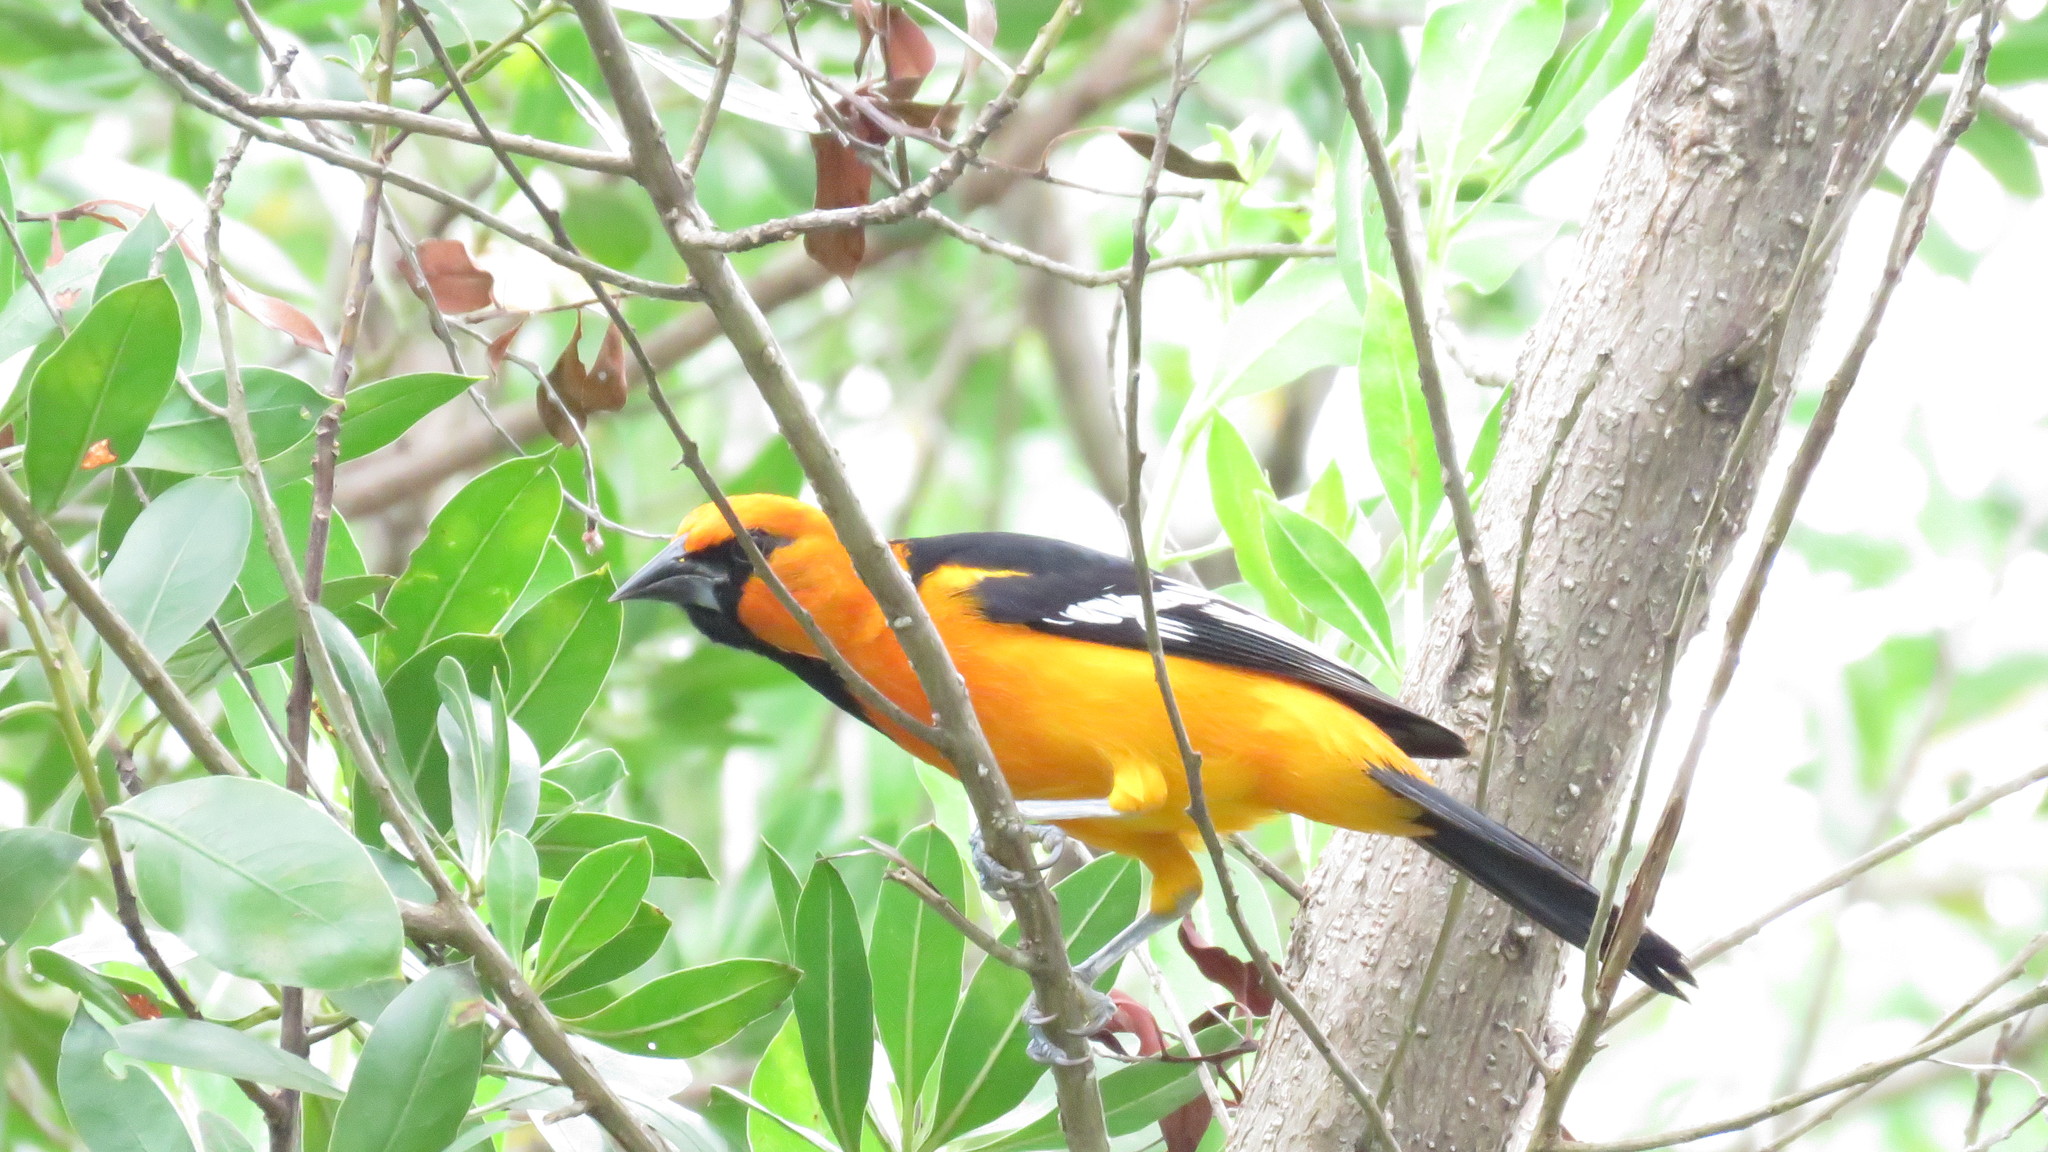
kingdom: Animalia
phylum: Chordata
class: Aves
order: Passeriformes
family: Icteridae
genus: Icterus
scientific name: Icterus cucullatus
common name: Hooded oriole
